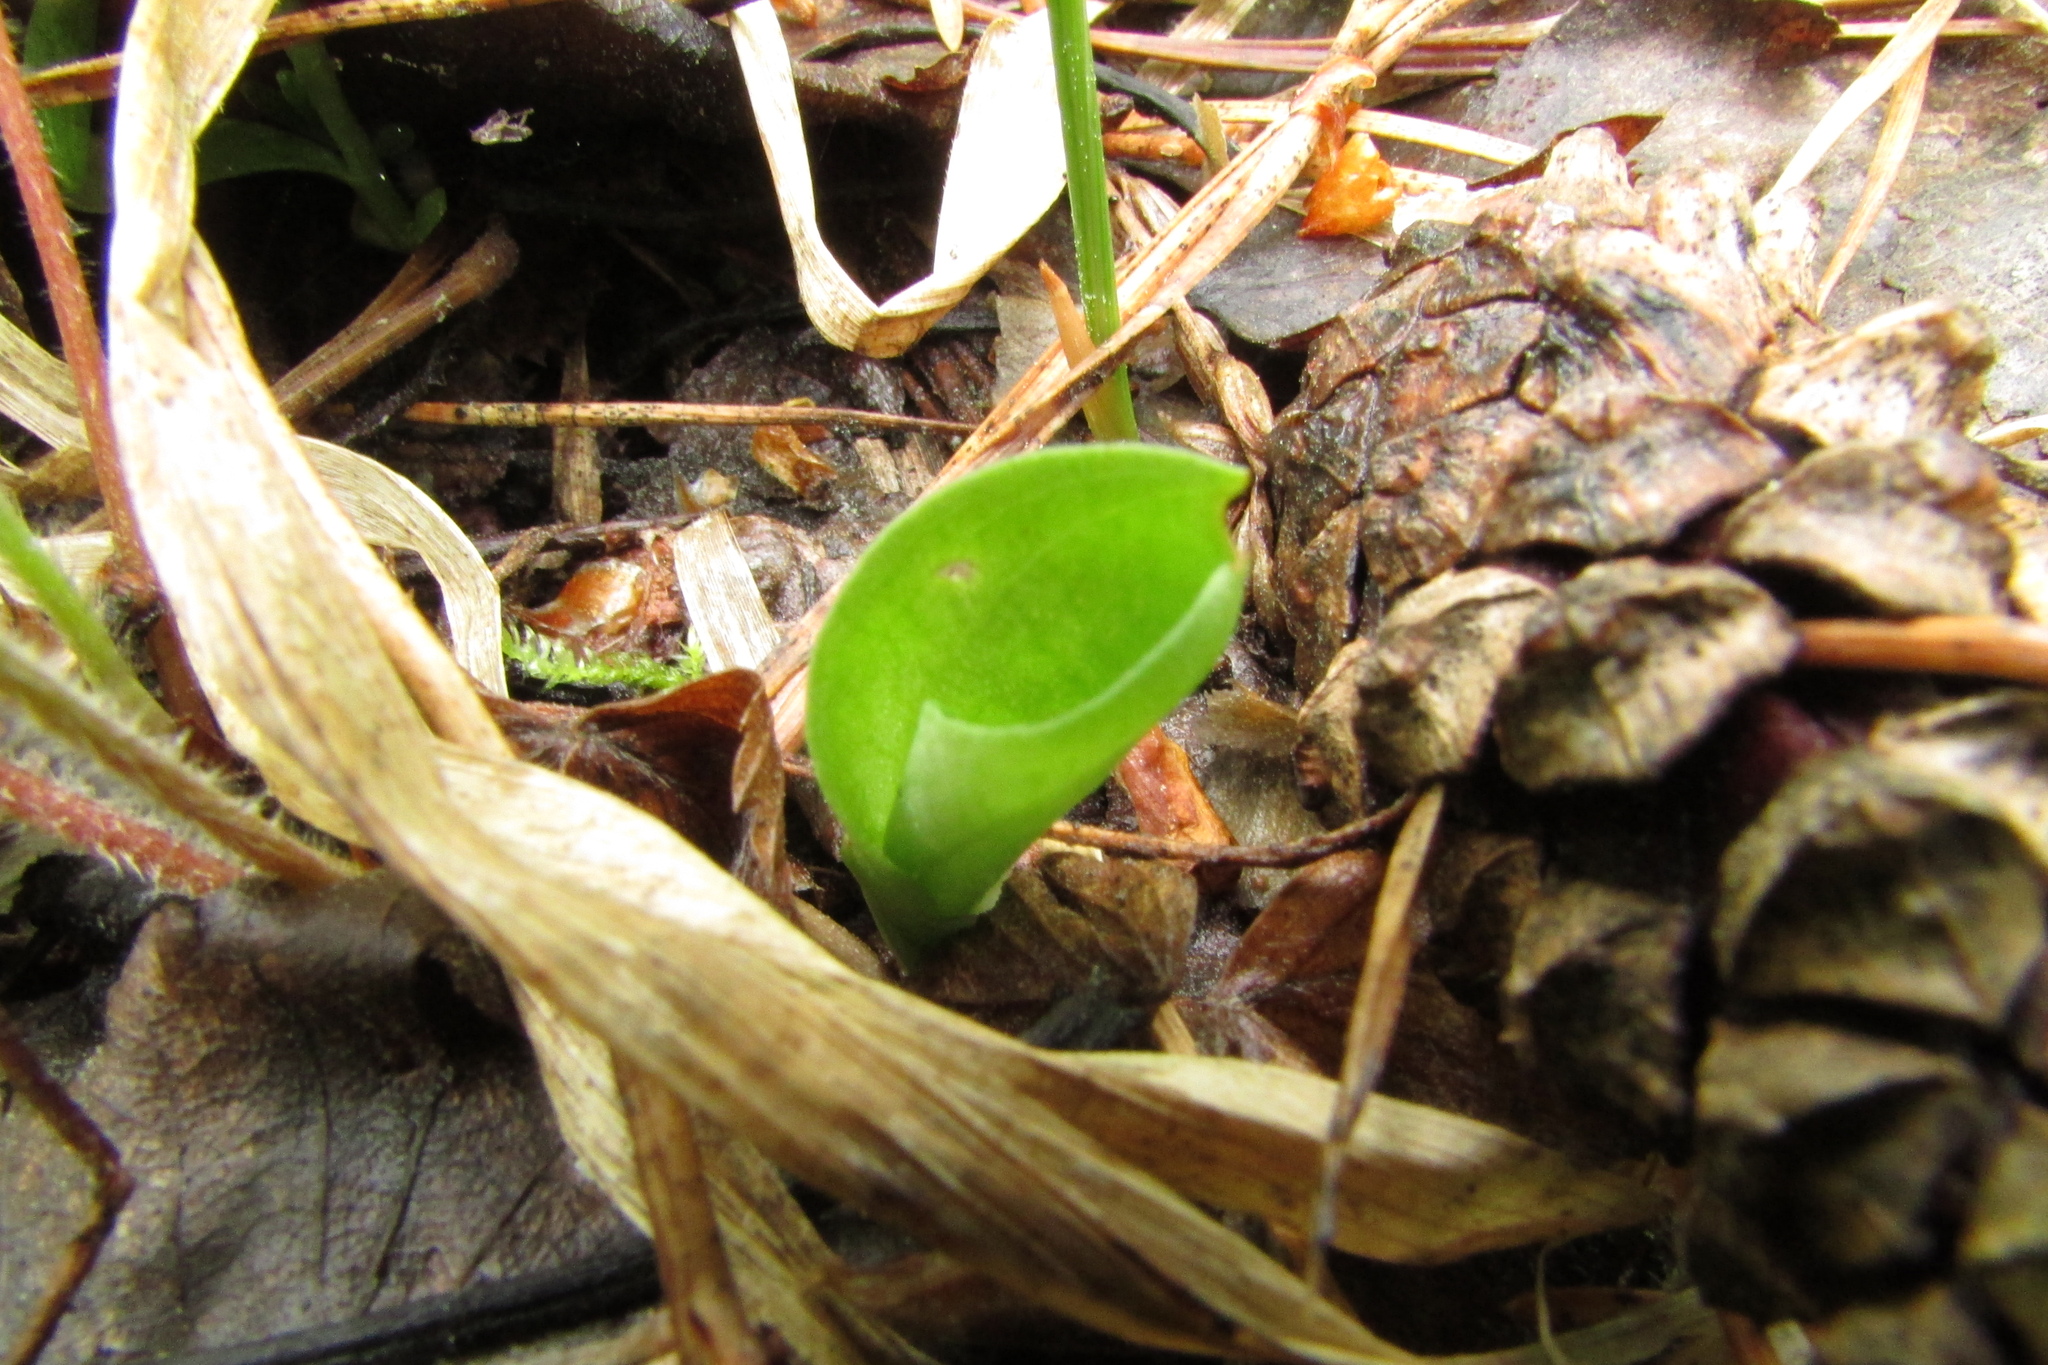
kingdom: Plantae
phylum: Tracheophyta
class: Liliopsida
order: Asparagales
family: Orchidaceae
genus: Hemipilia
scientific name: Hemipilia cucullata
